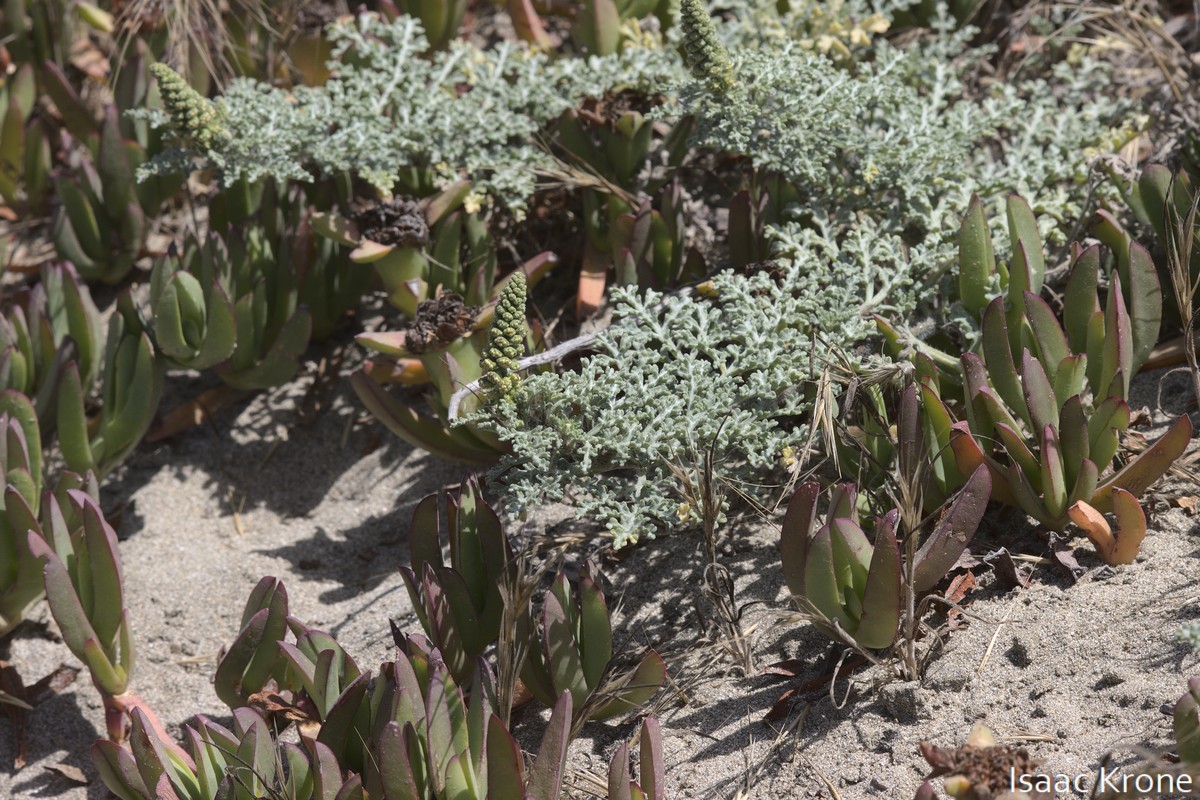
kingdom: Plantae
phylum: Tracheophyta
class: Magnoliopsida
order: Asterales
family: Asteraceae
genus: Ambrosia
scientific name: Ambrosia chamissonis
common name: Beachbur
